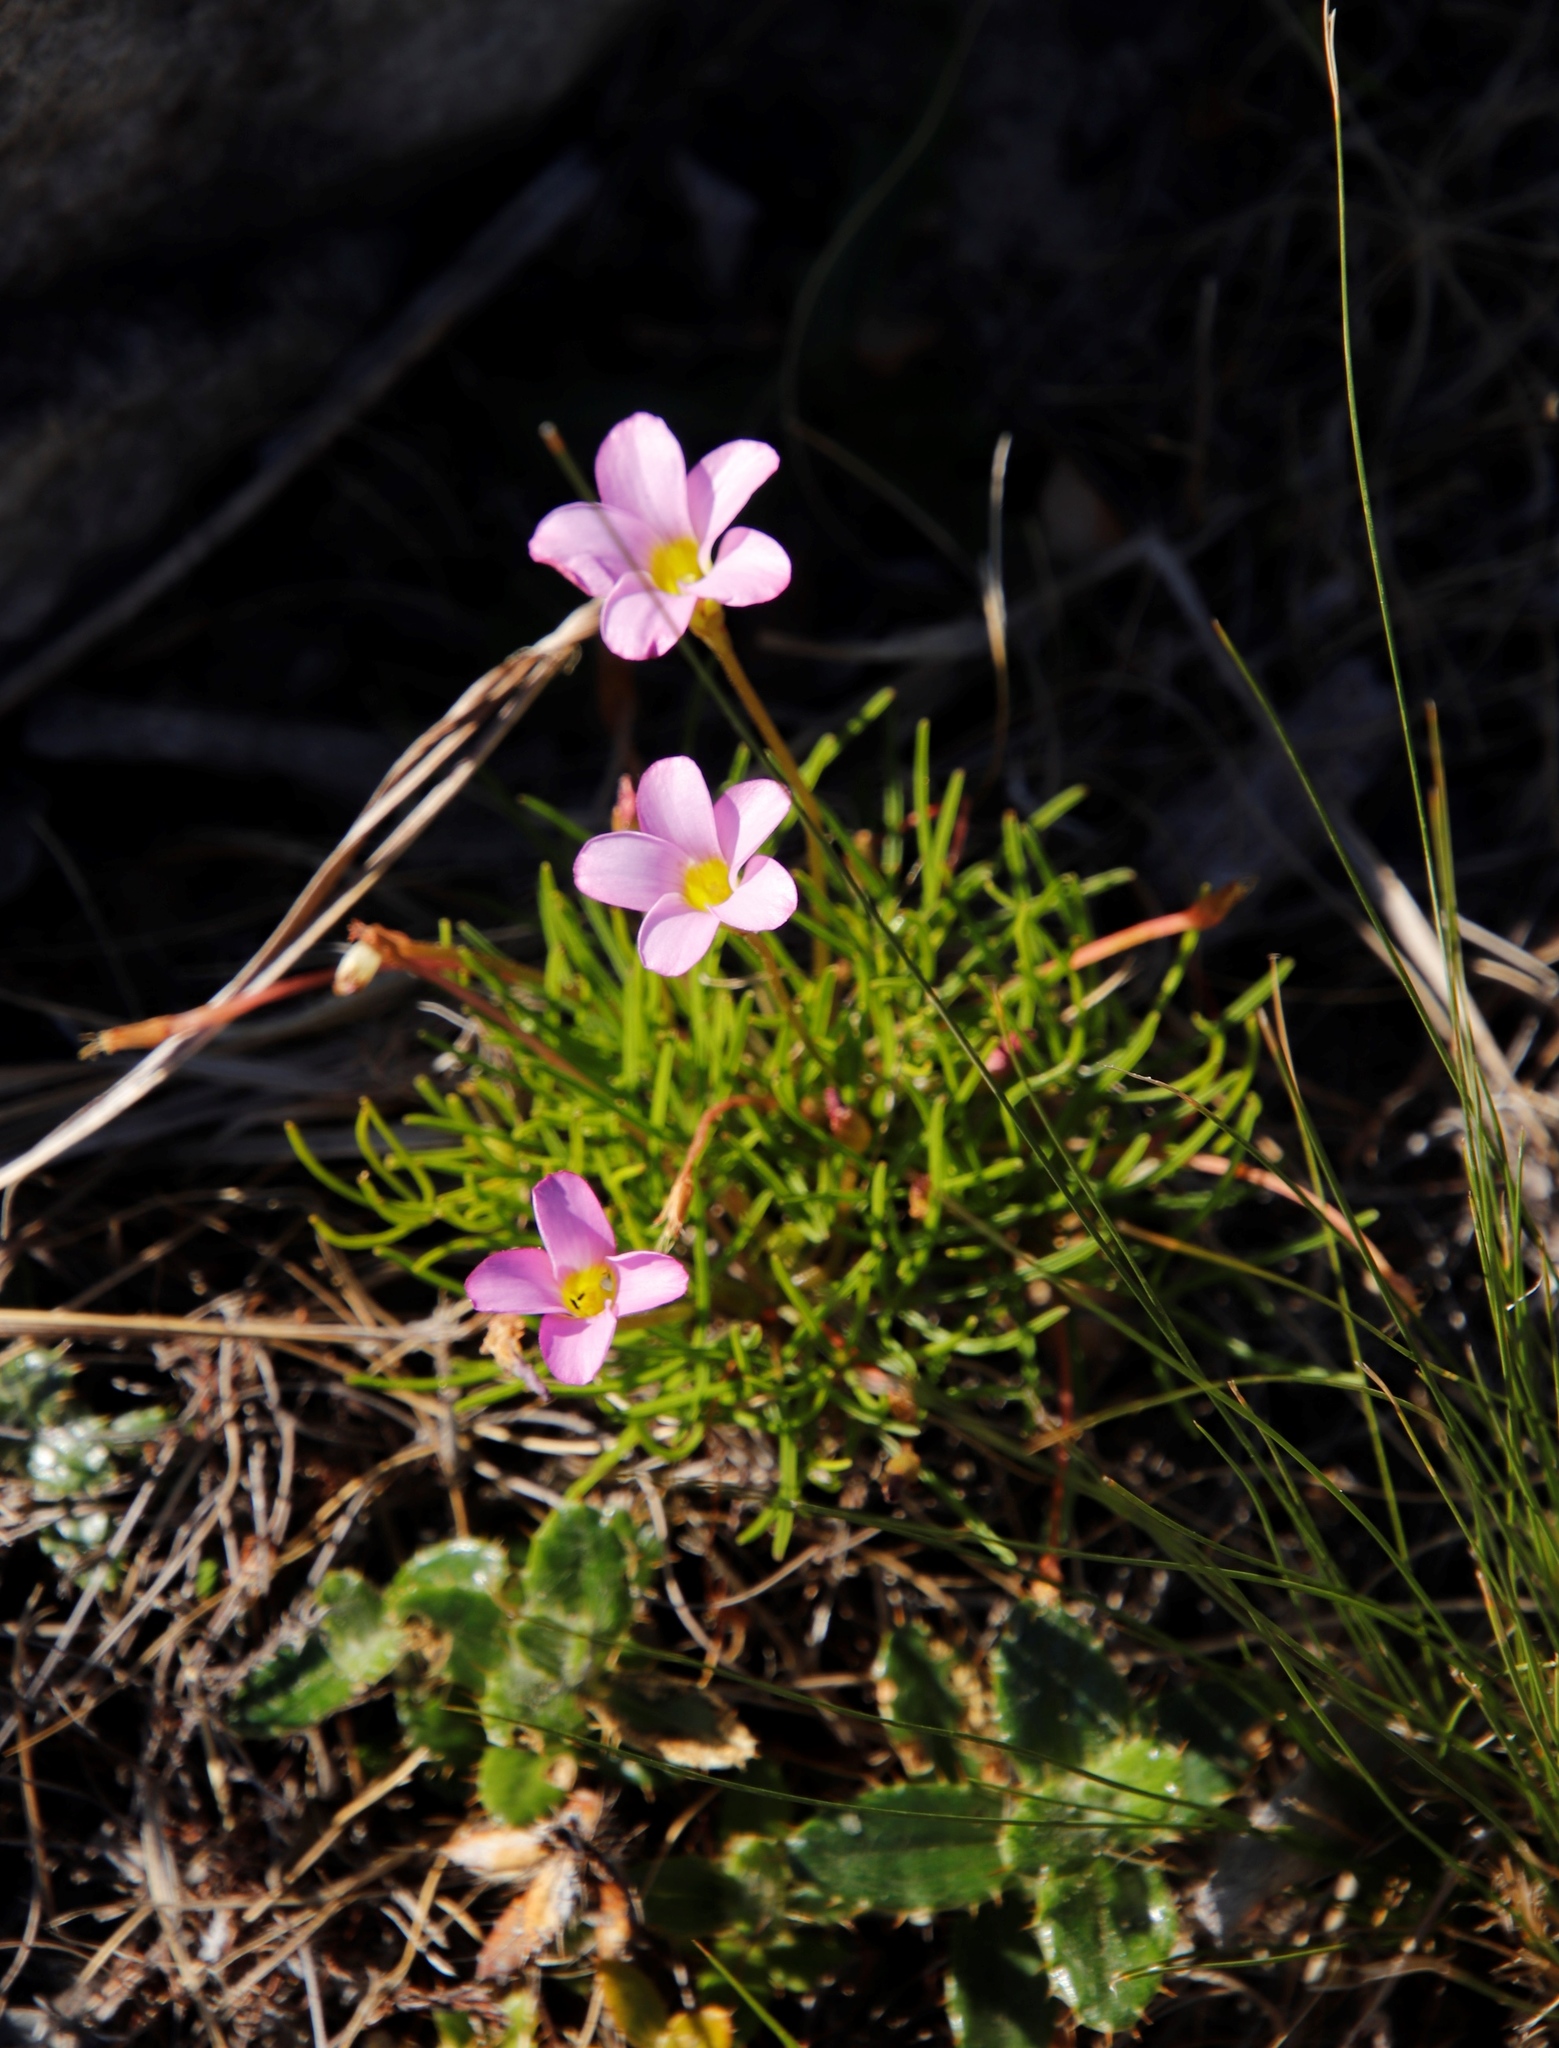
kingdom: Plantae
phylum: Tracheophyta
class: Magnoliopsida
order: Oxalidales
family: Oxalidaceae
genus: Oxalis
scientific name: Oxalis polyphylla
